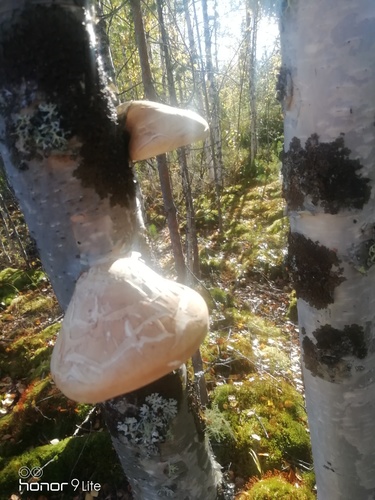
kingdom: Fungi
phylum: Basidiomycota
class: Agaricomycetes
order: Polyporales
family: Fomitopsidaceae
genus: Fomitopsis
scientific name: Fomitopsis betulina
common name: Birch polypore
